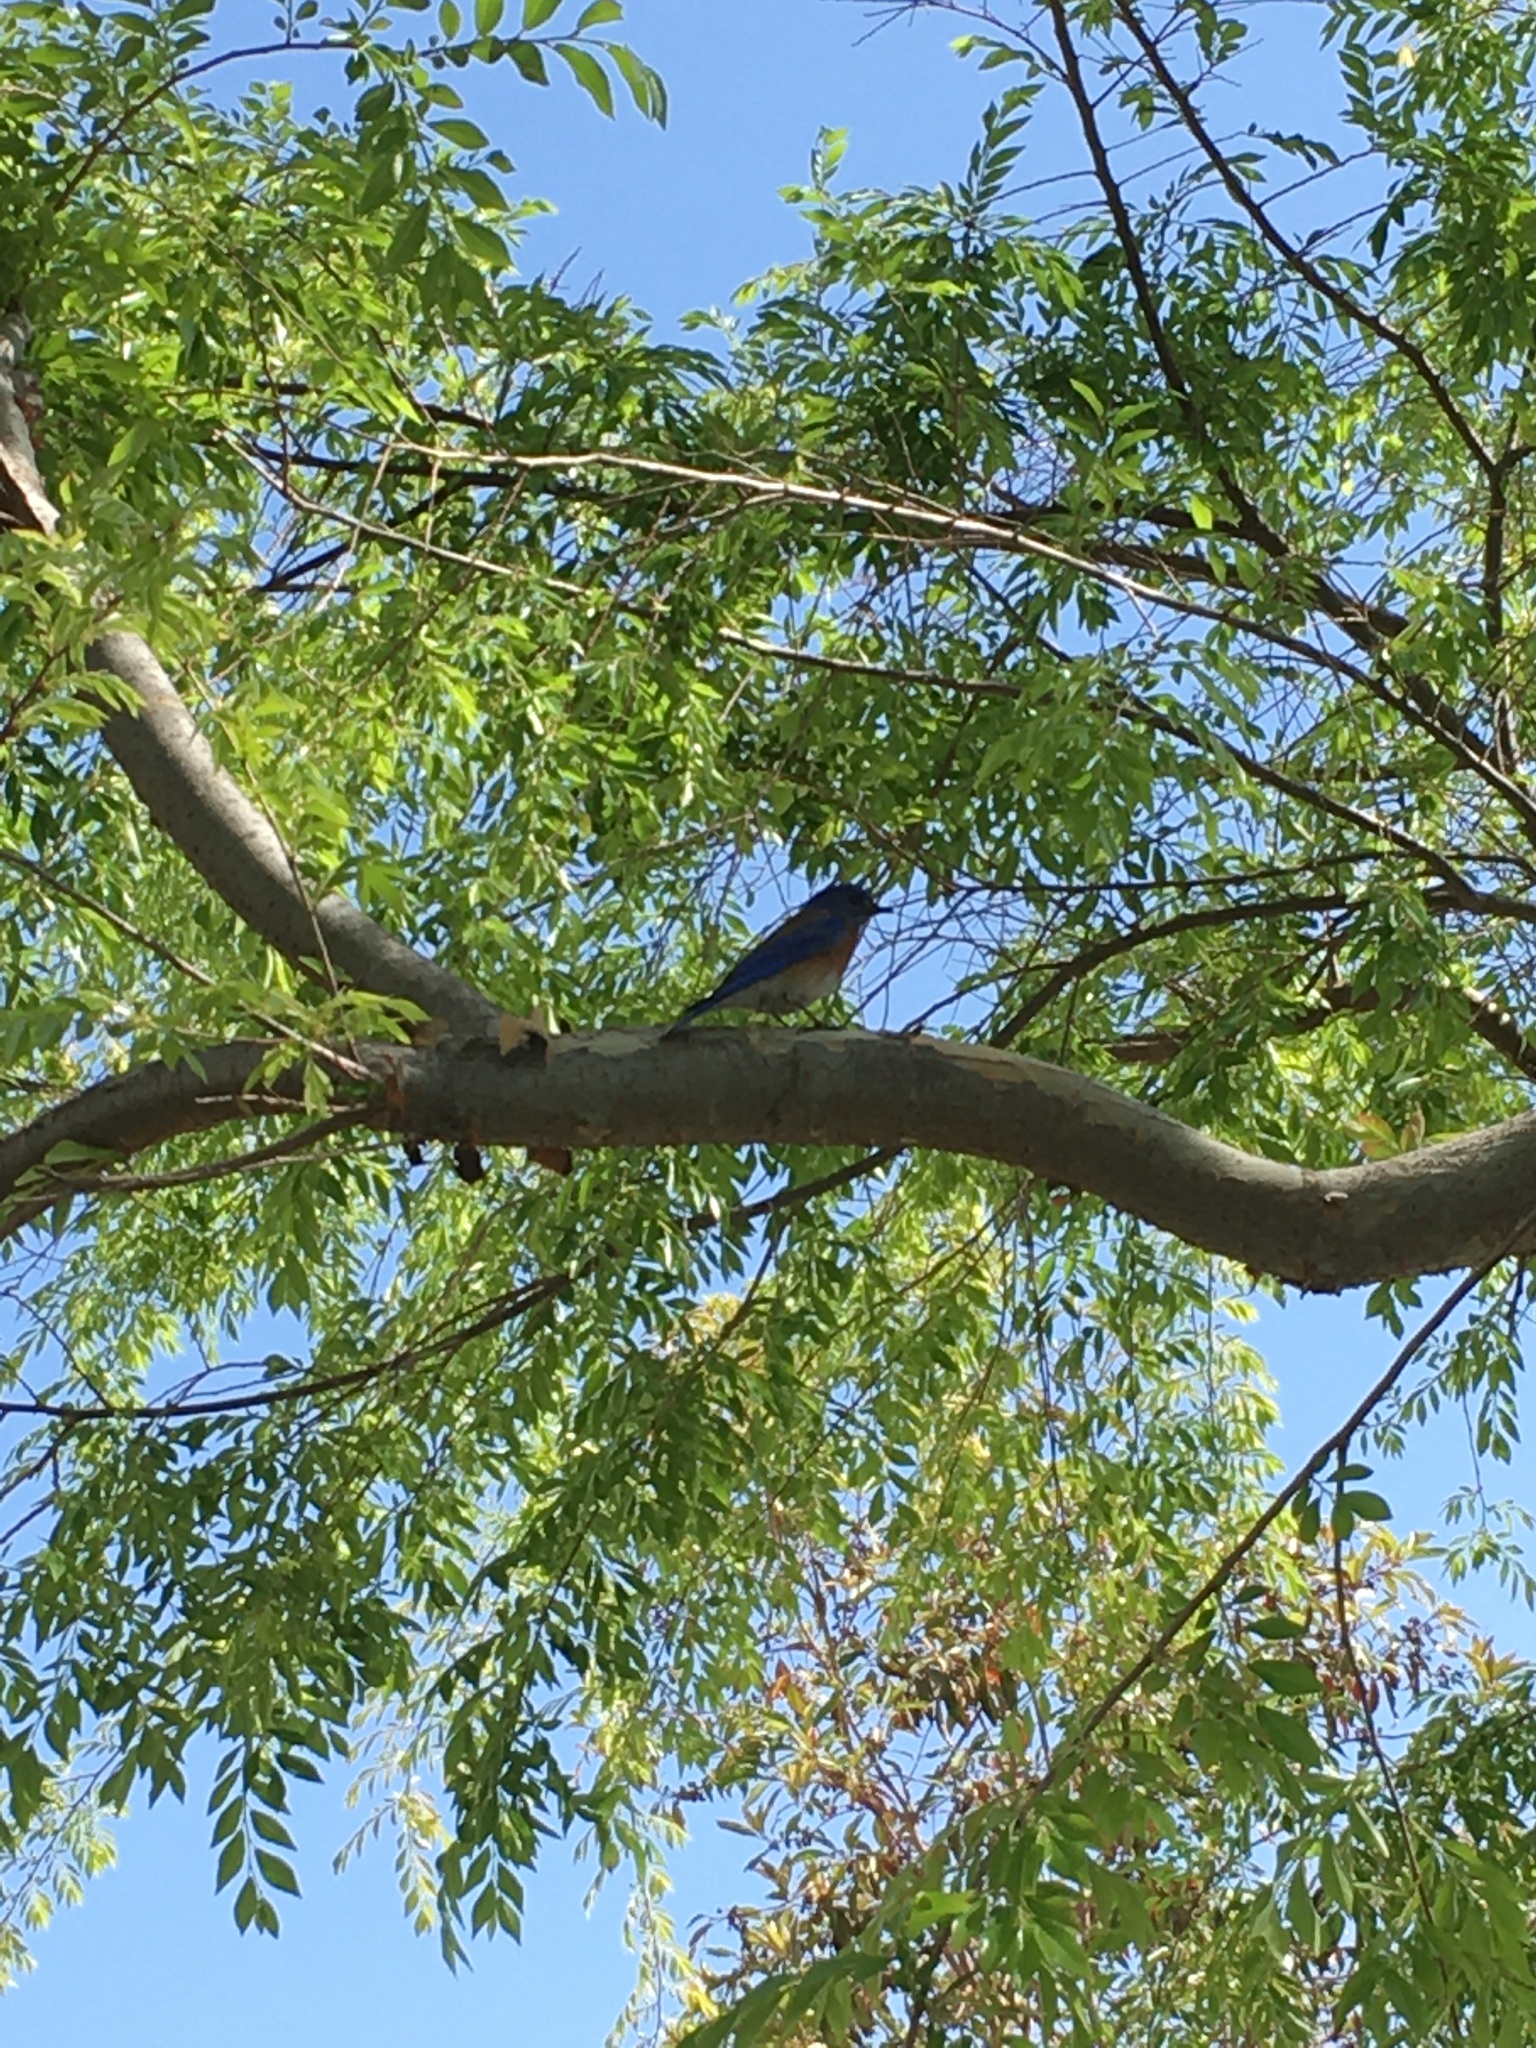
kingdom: Animalia
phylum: Chordata
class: Aves
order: Passeriformes
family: Turdidae
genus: Sialia
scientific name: Sialia mexicana
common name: Western bluebird
